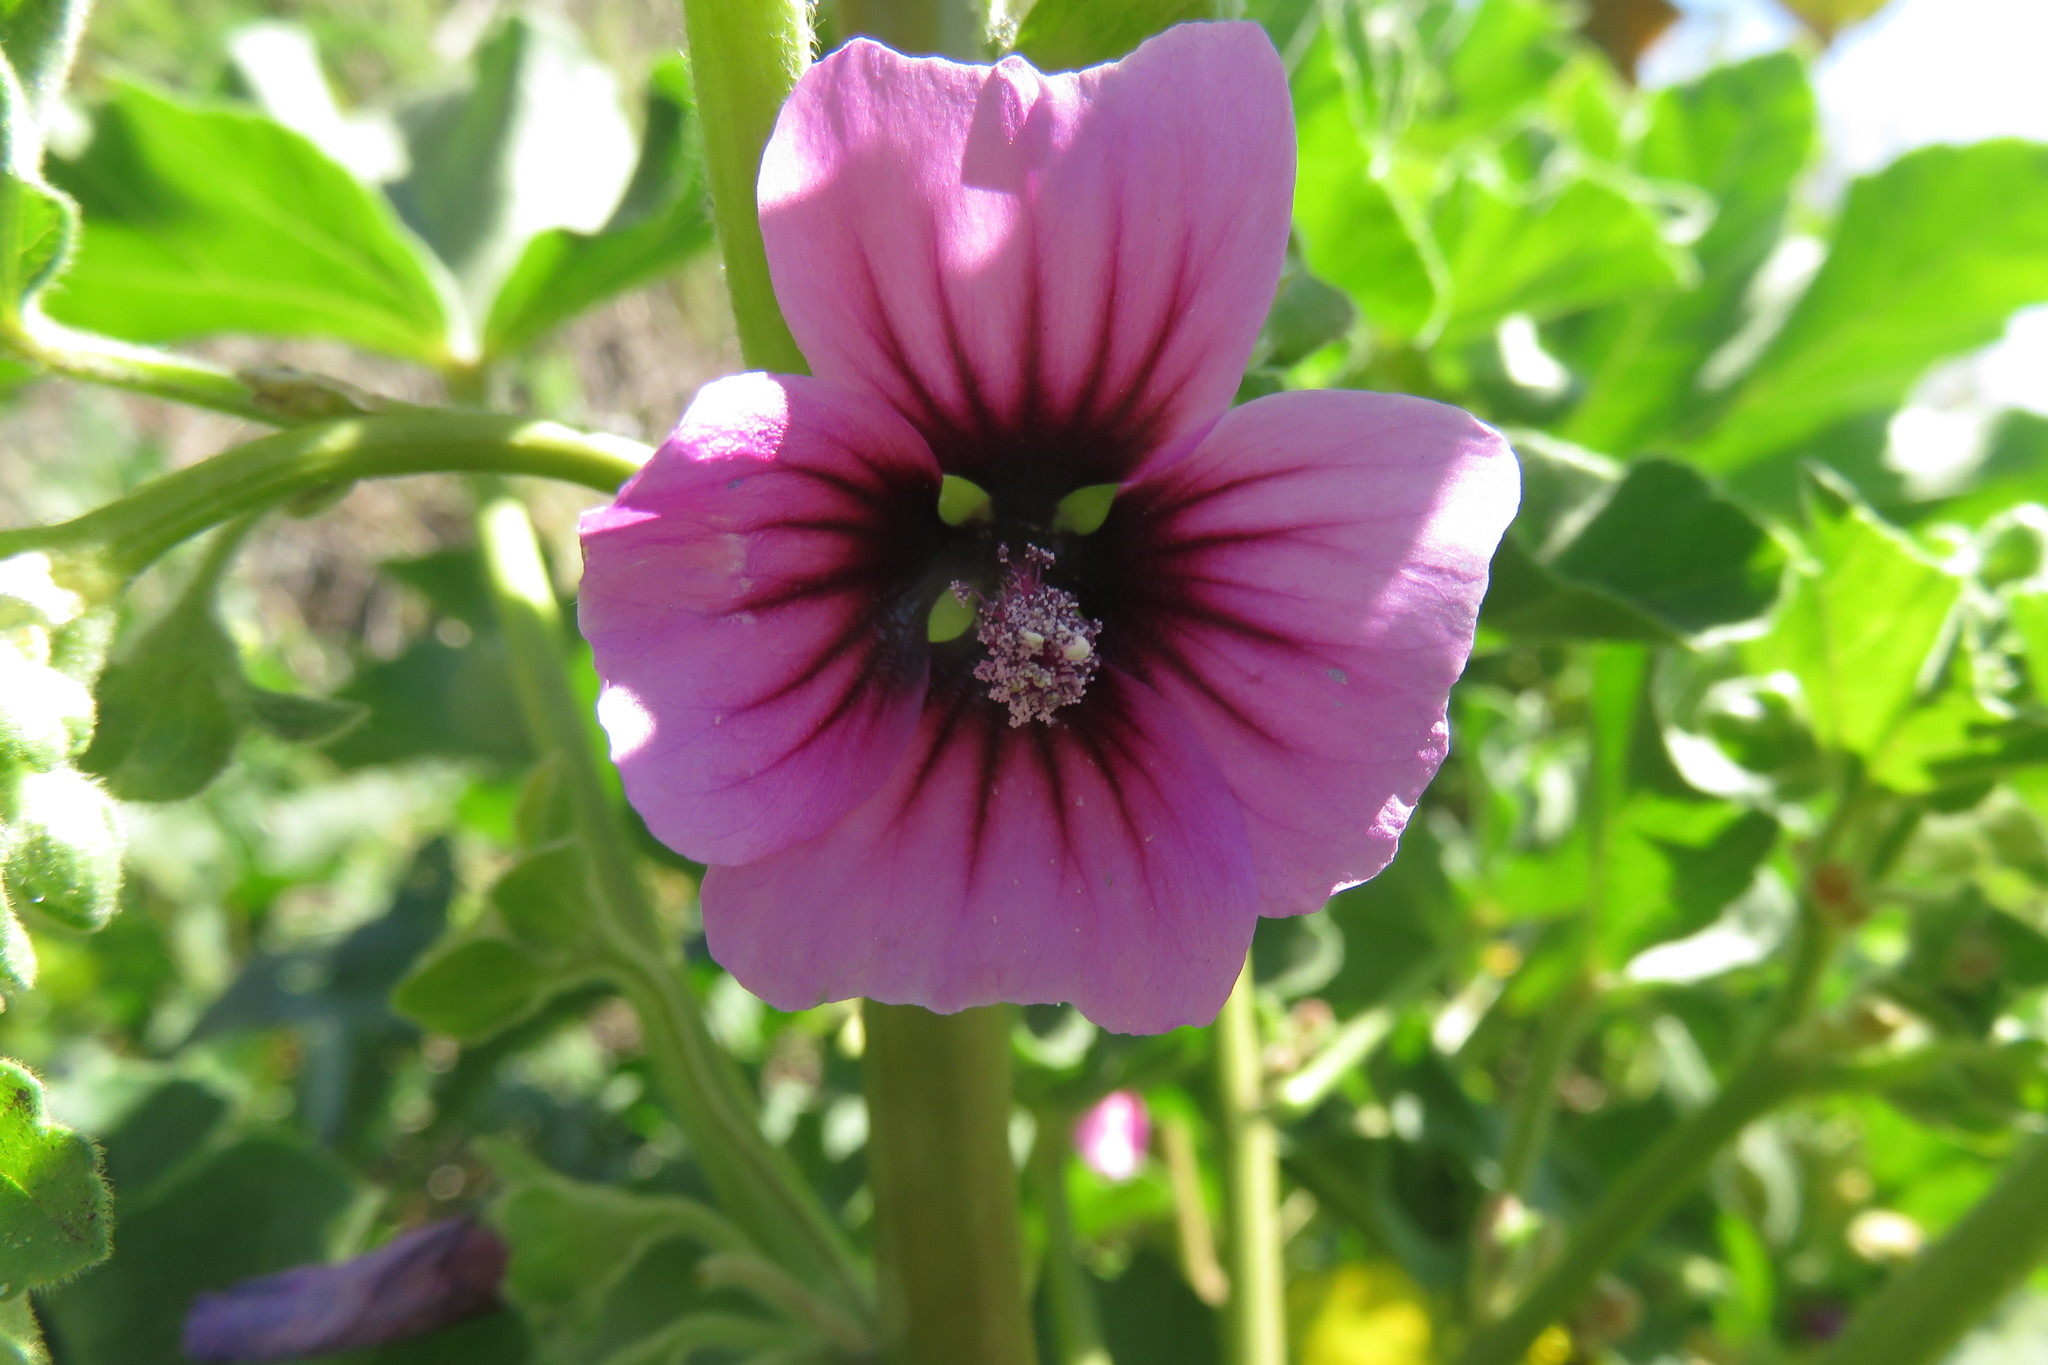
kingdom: Plantae
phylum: Tracheophyta
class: Magnoliopsida
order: Malvales
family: Malvaceae
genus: Malva
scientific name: Malva arborea
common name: Tree mallow
